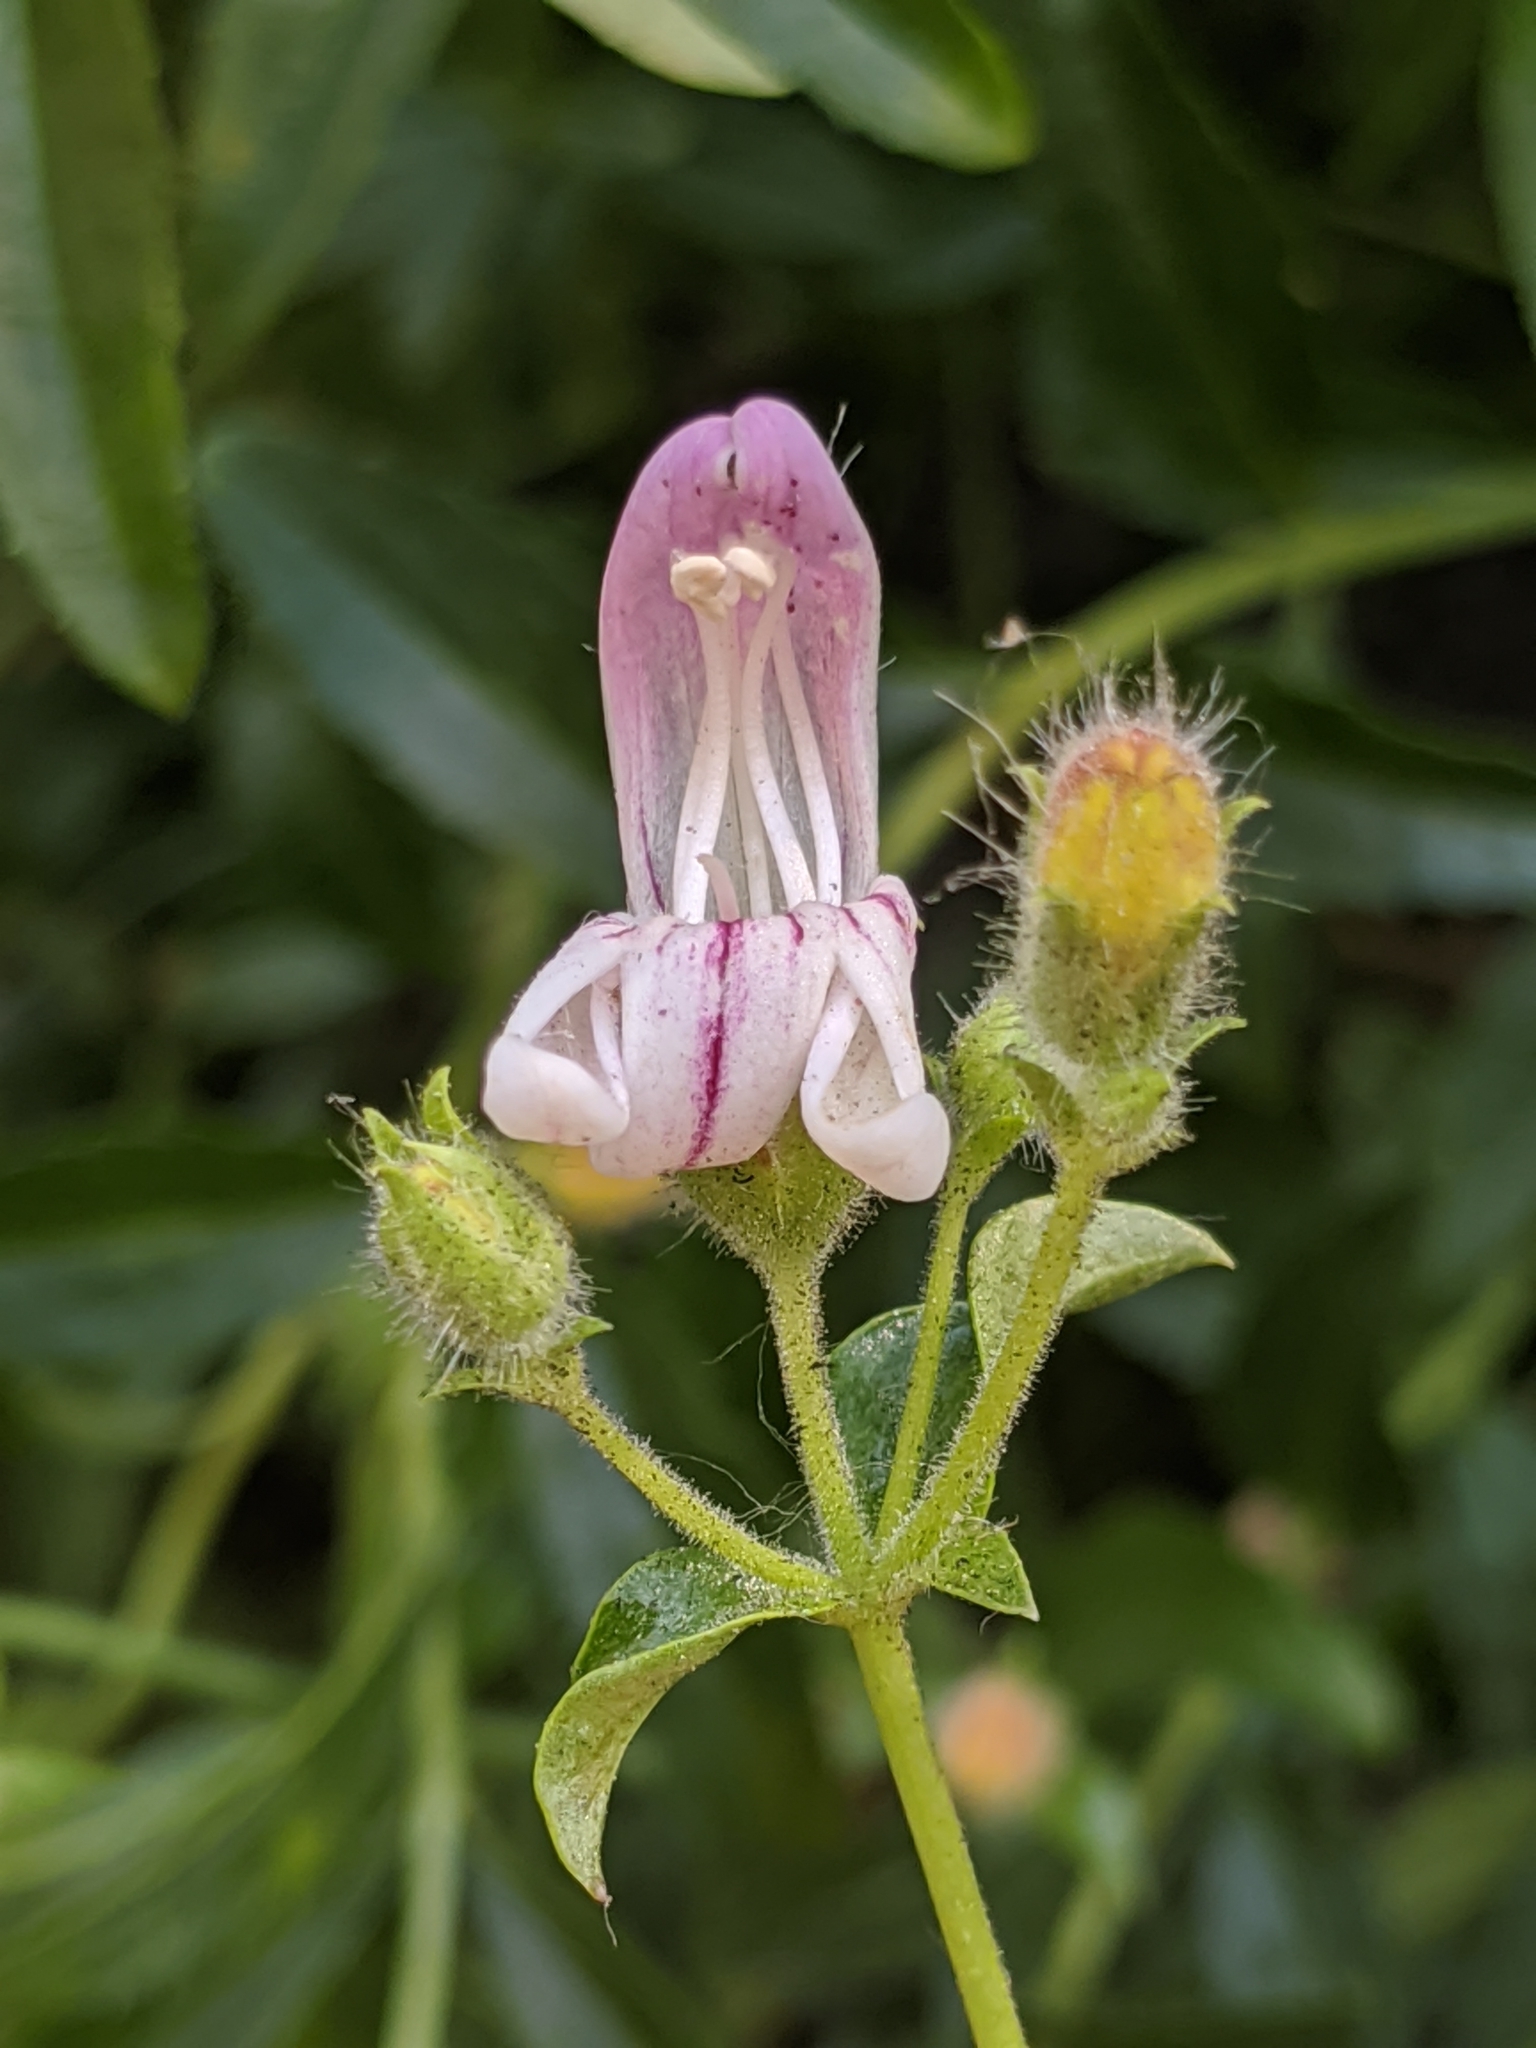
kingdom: Plantae
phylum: Tracheophyta
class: Magnoliopsida
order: Lamiales
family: Plantaginaceae
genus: Keckiella
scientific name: Keckiella breviflora
